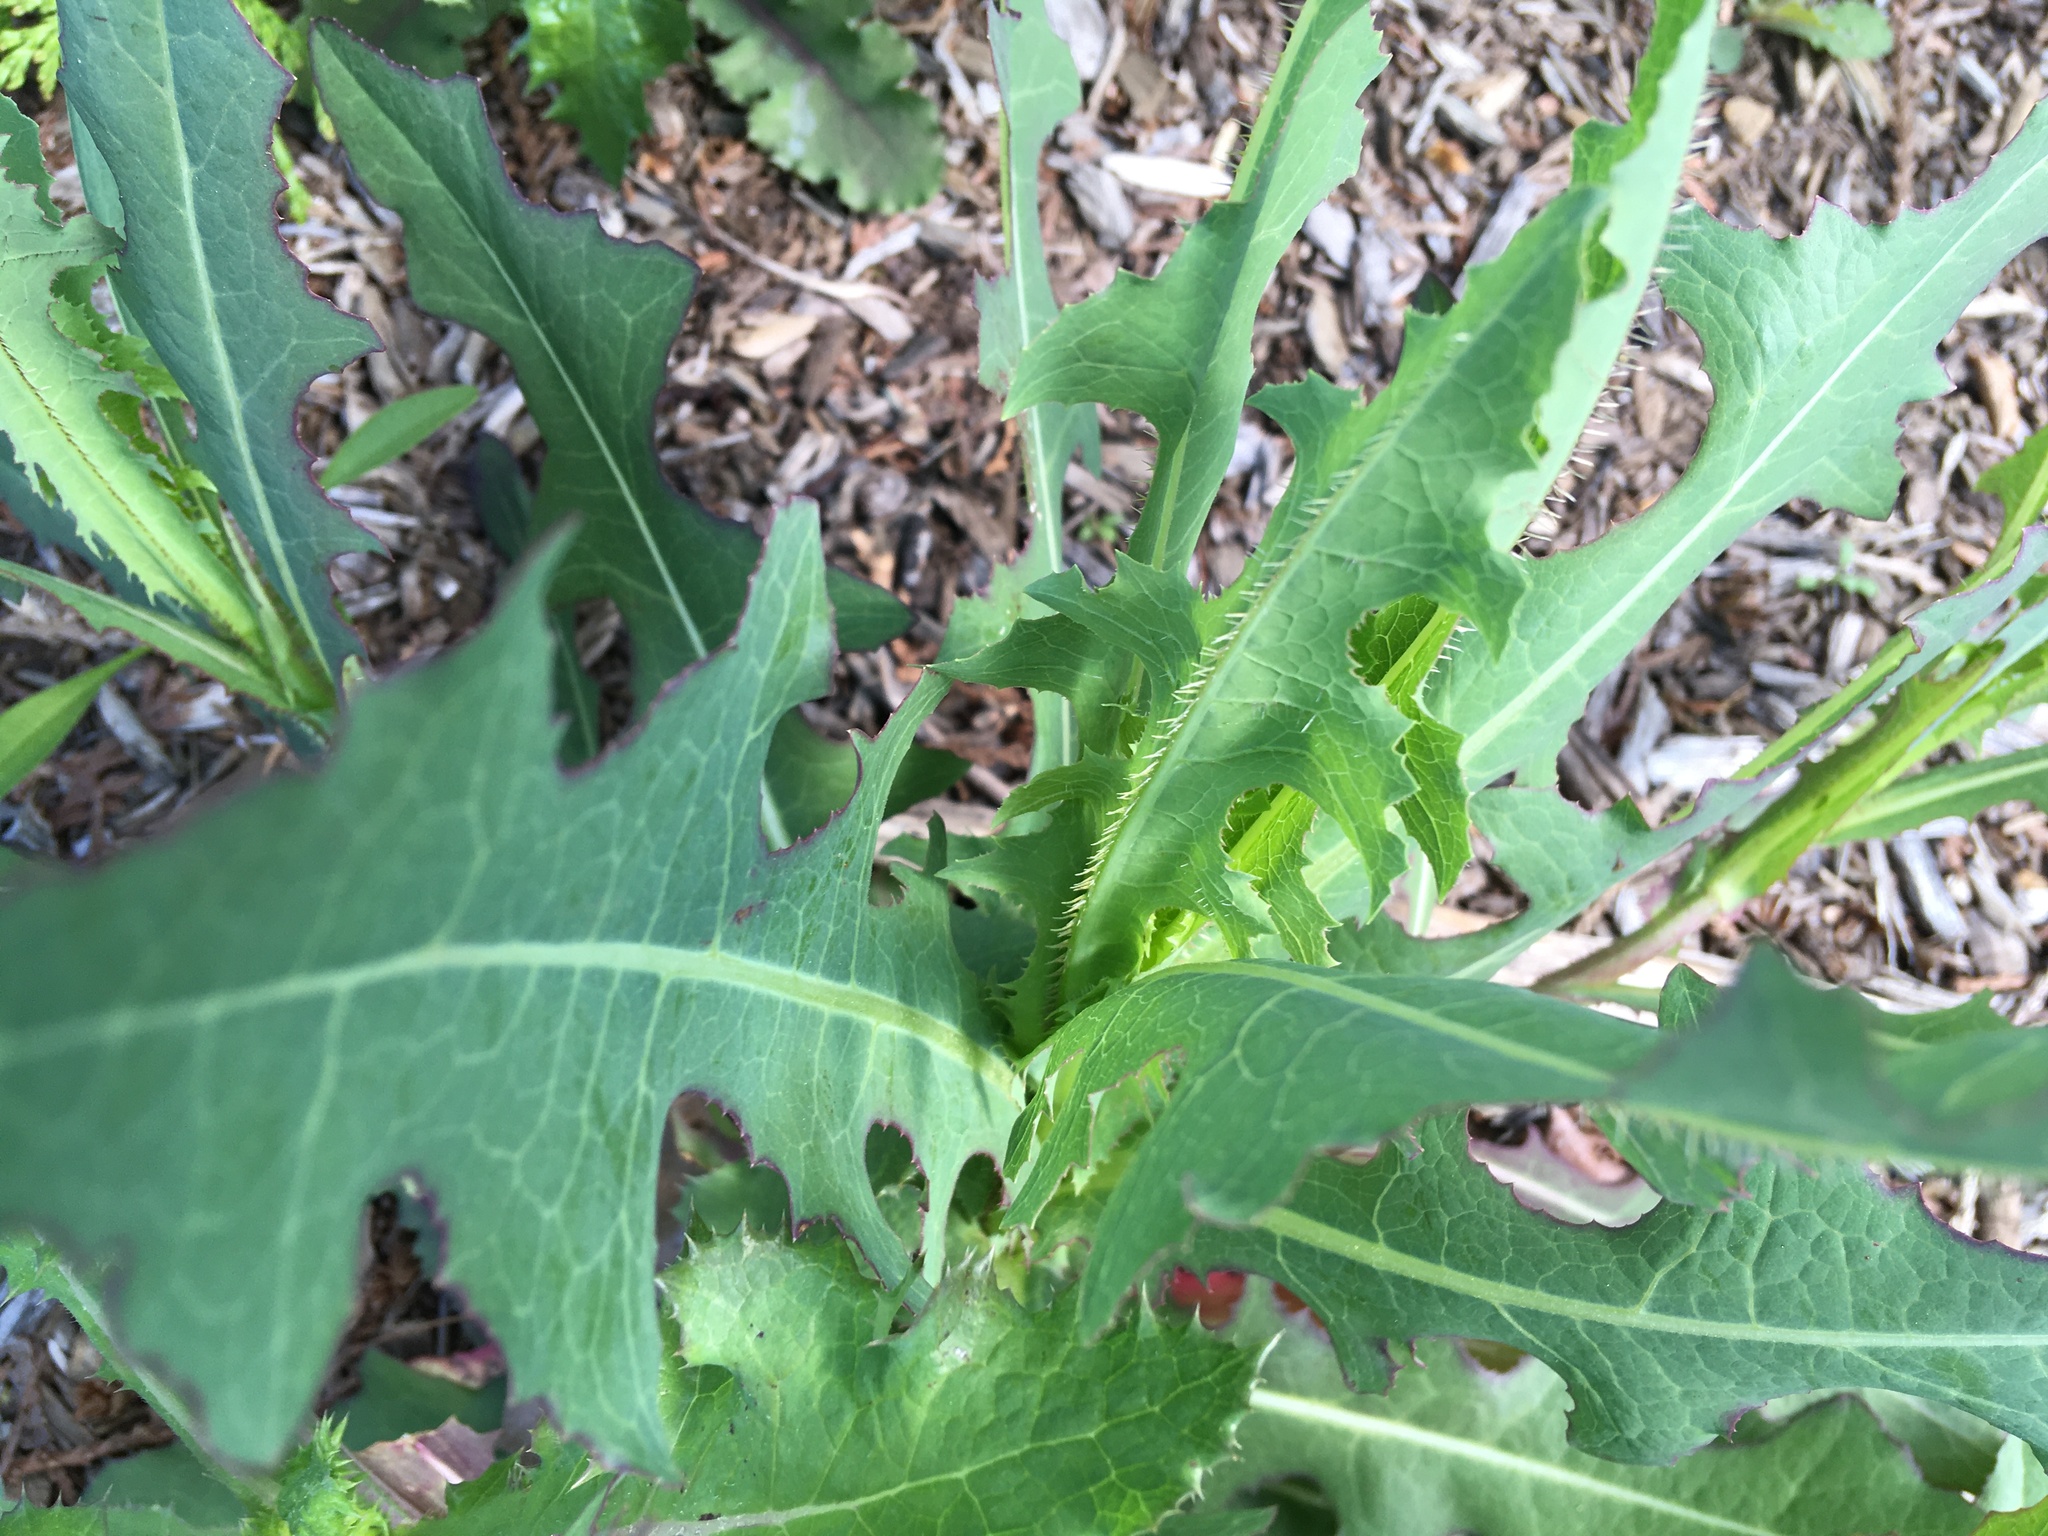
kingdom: Plantae
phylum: Tracheophyta
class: Magnoliopsida
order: Asterales
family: Asteraceae
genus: Lactuca
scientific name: Lactuca serriola
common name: Prickly lettuce
